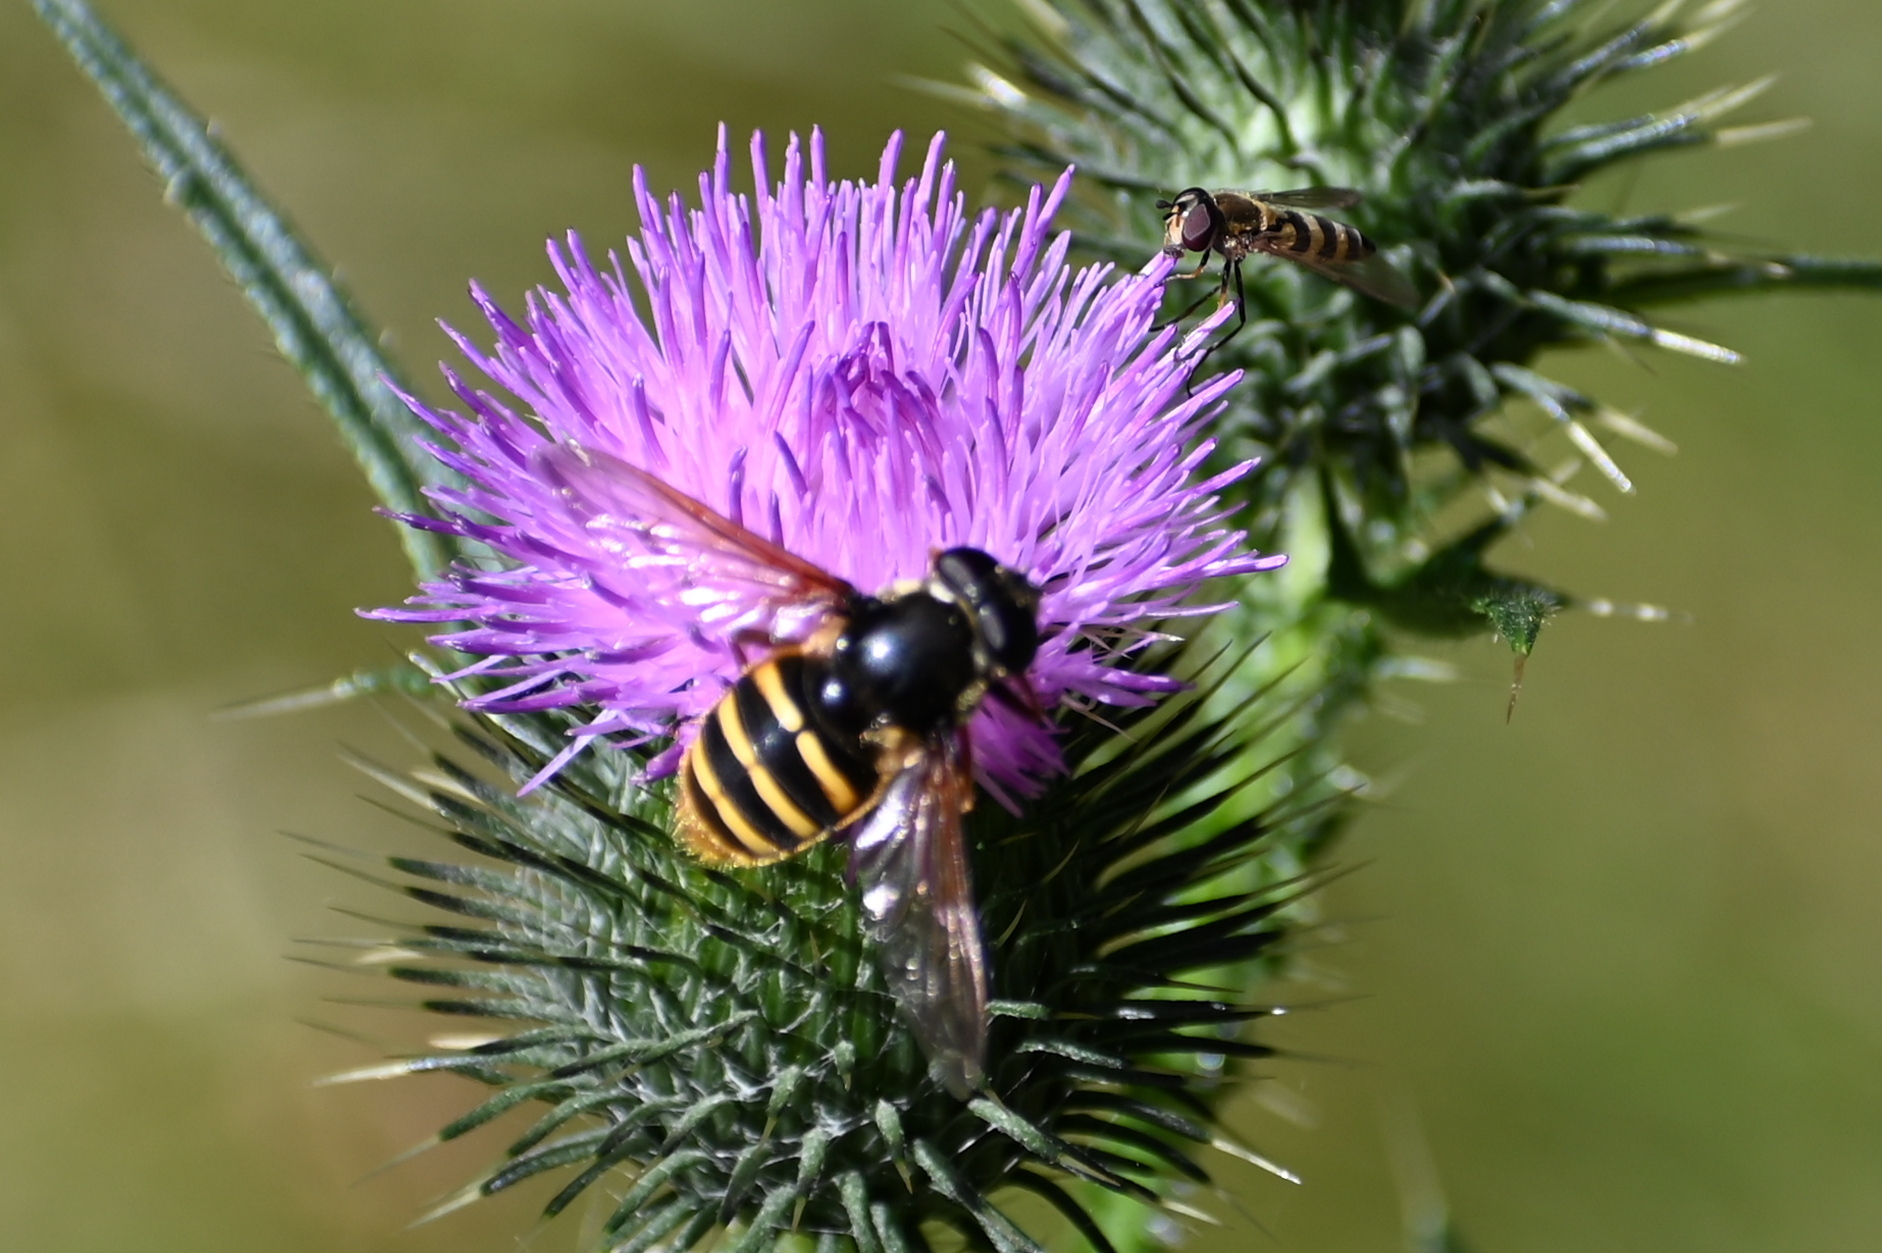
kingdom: Animalia
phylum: Arthropoda
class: Insecta
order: Diptera
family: Syrphidae
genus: Sericomyia
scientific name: Sericomyia silentis
